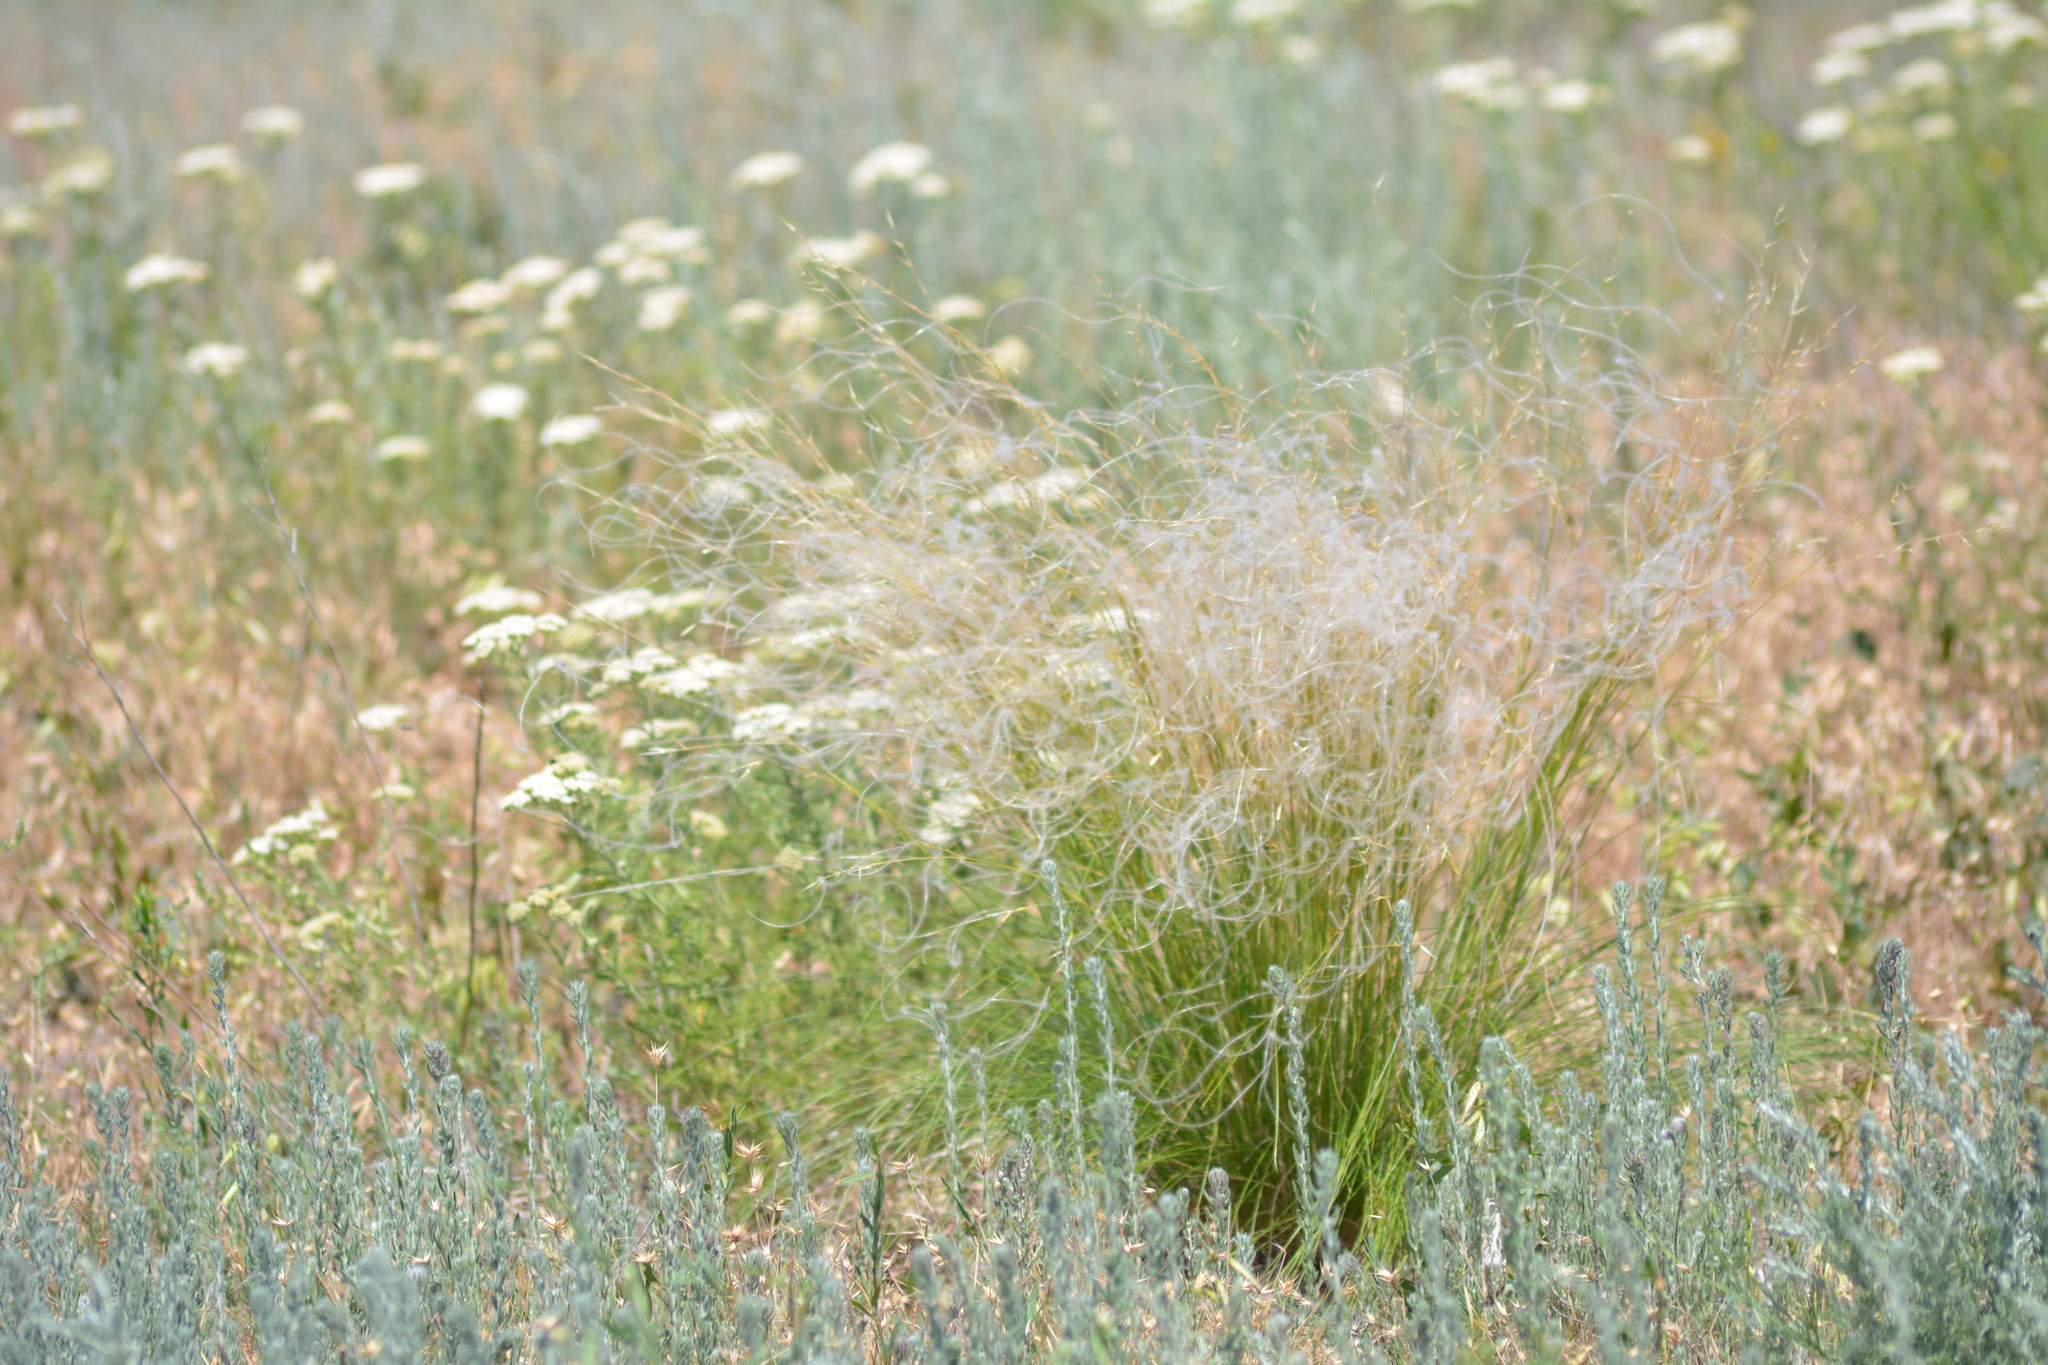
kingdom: Plantae
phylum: Tracheophyta
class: Liliopsida
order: Poales
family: Poaceae
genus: Stipa
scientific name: Stipa lessingiana
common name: Needle grass
